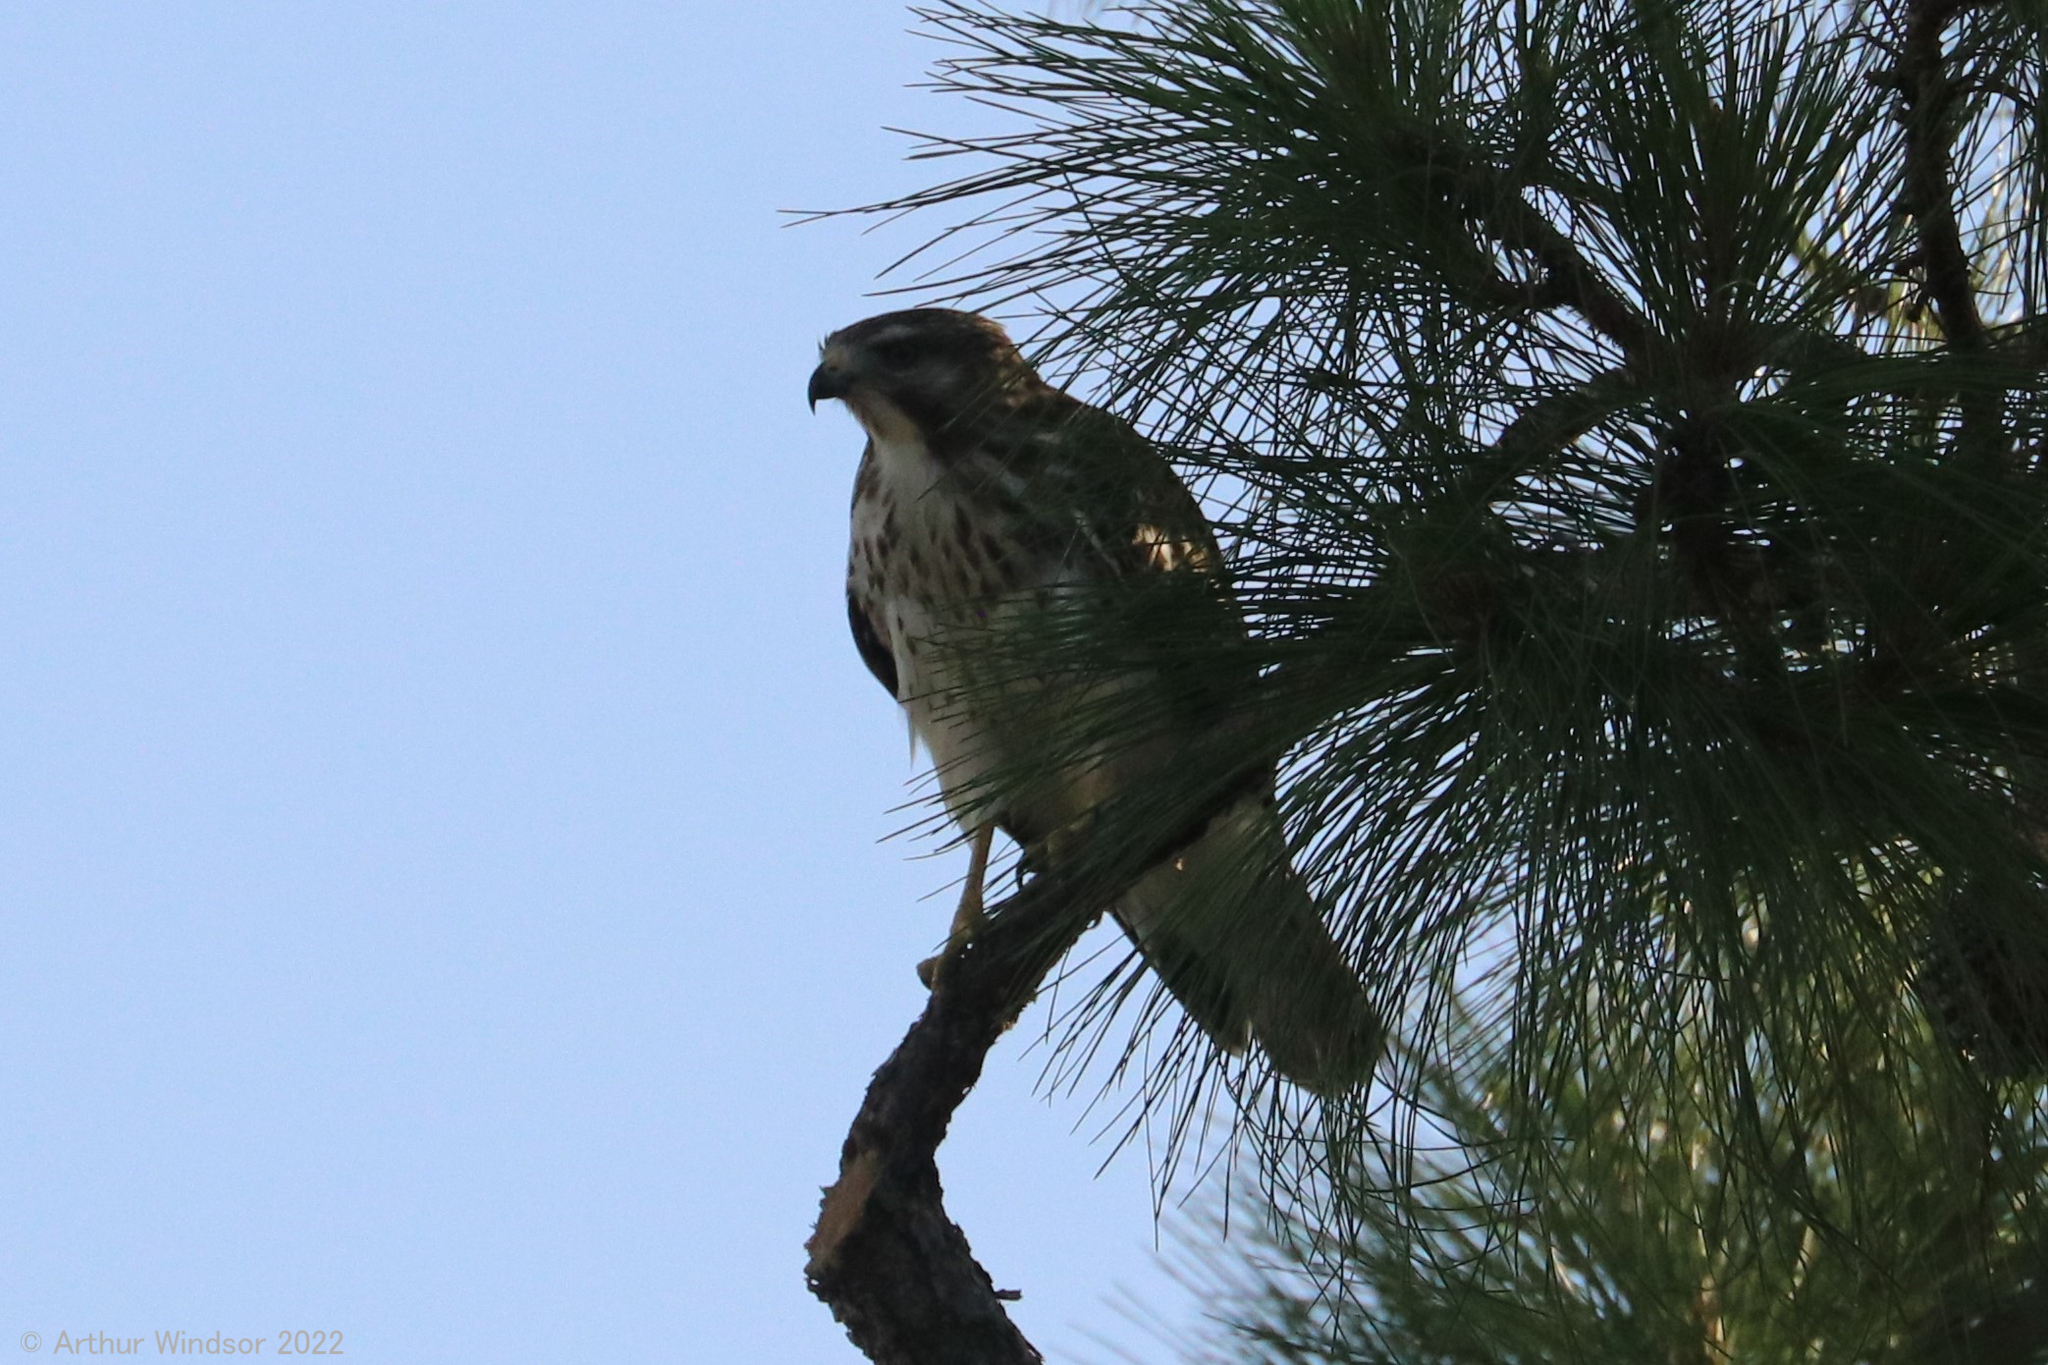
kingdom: Animalia
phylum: Chordata
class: Aves
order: Accipitriformes
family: Accipitridae
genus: Buteo
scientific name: Buteo platypterus
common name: Broad-winged hawk
